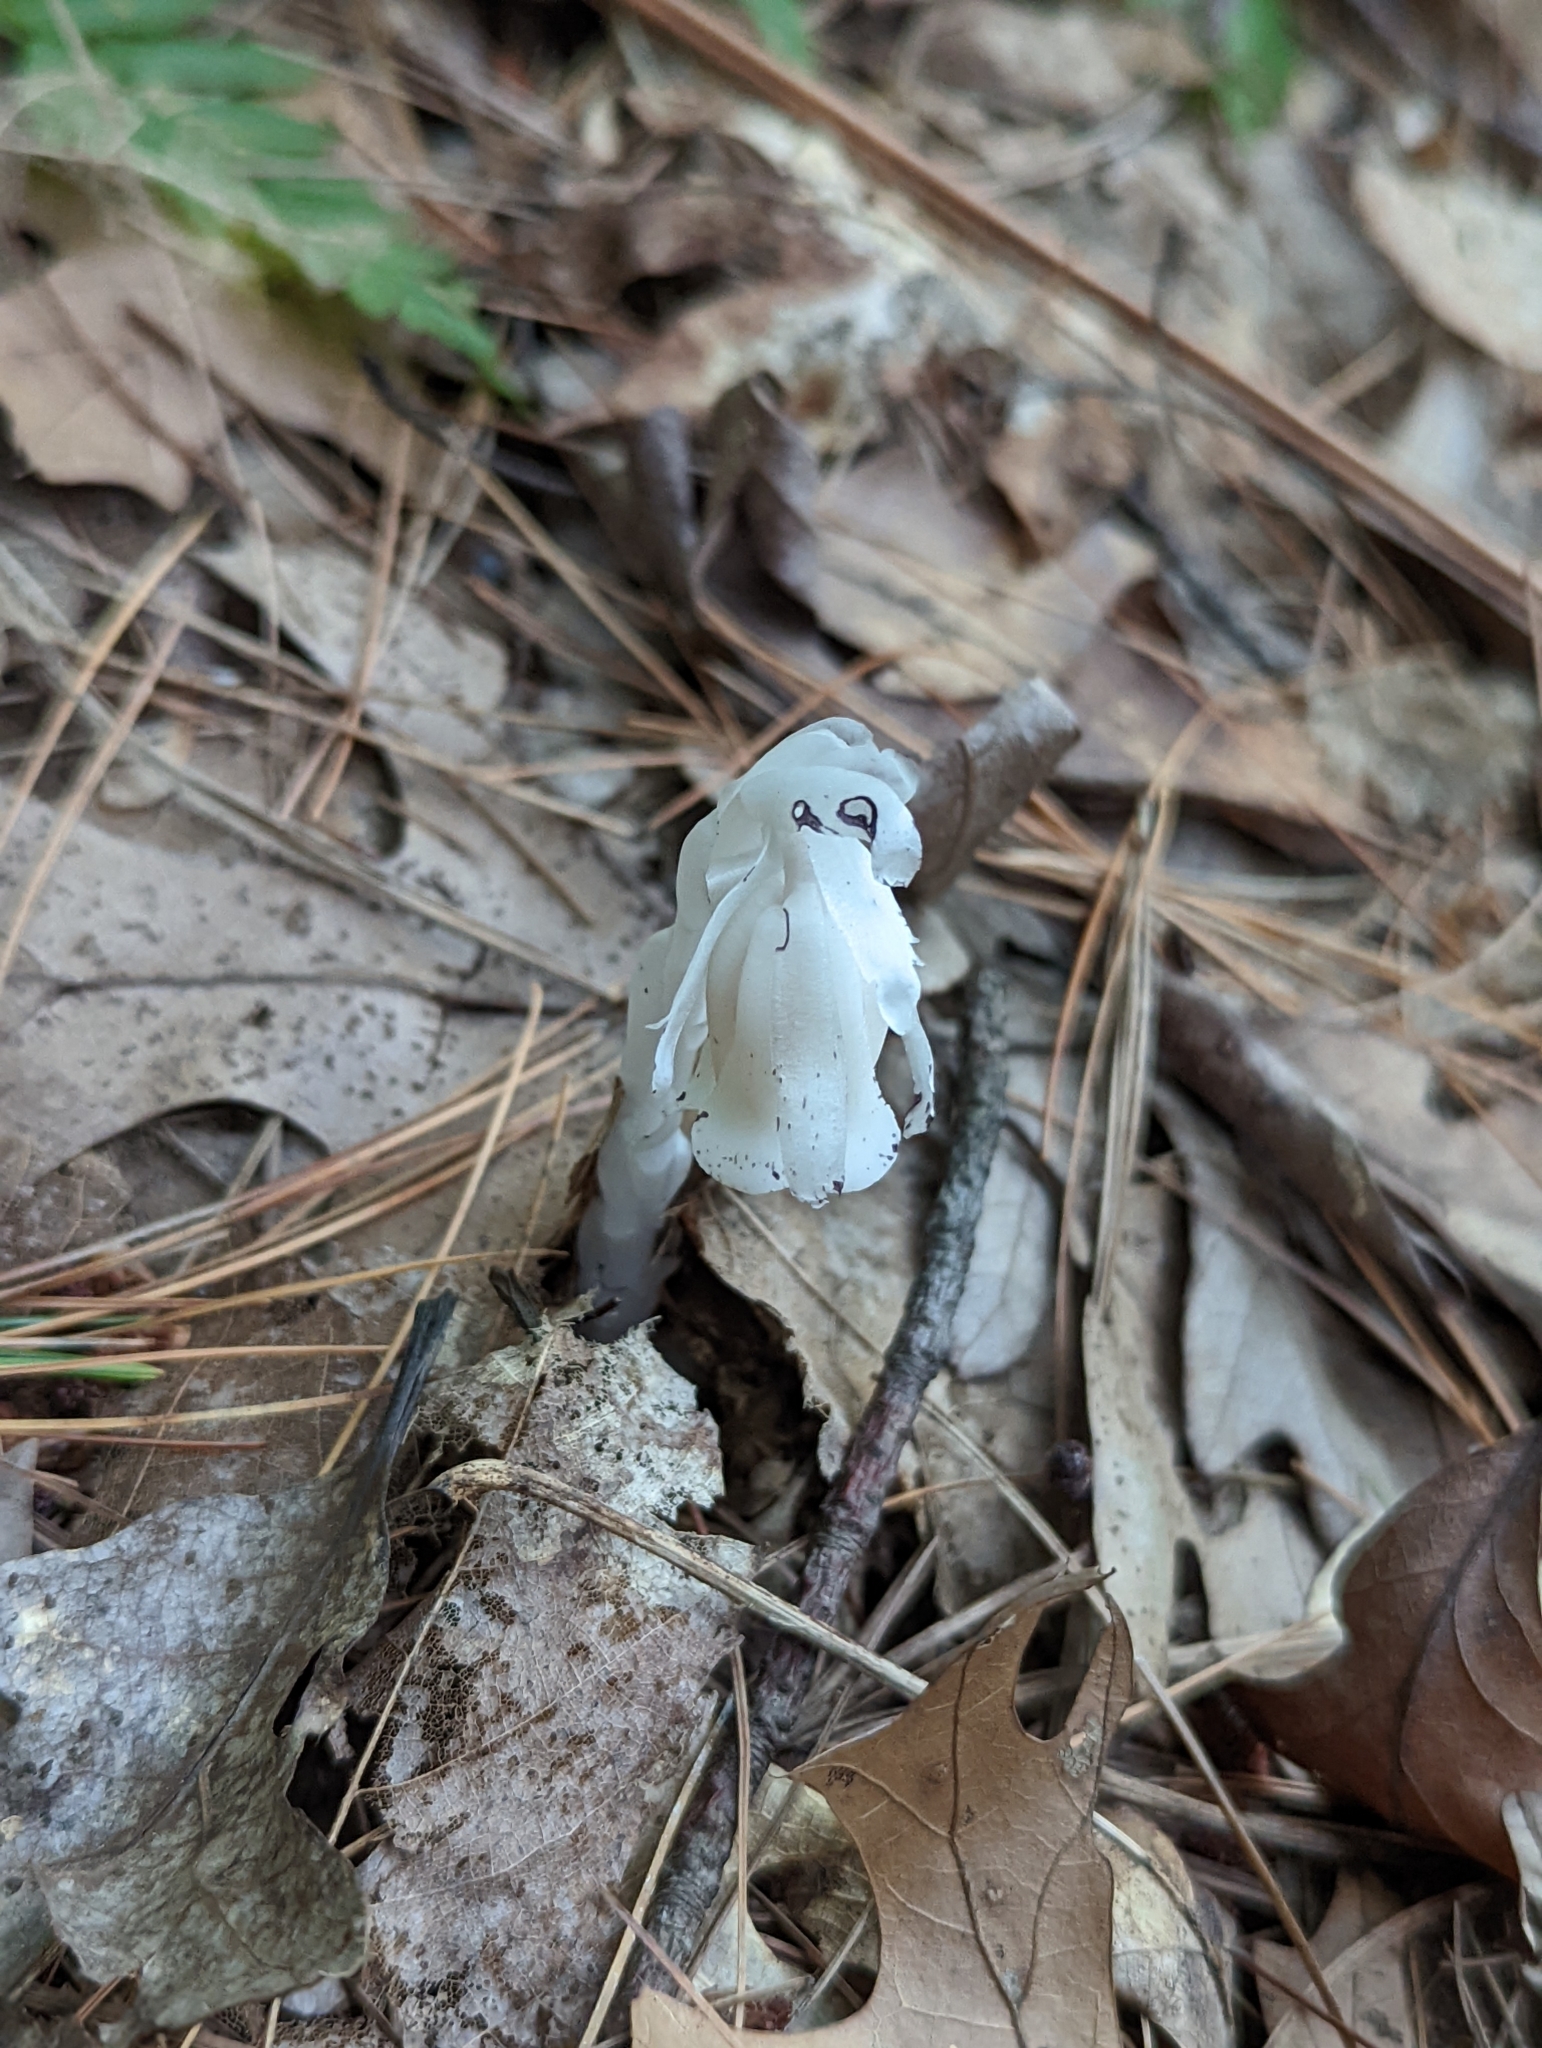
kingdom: Plantae
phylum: Tracheophyta
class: Magnoliopsida
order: Ericales
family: Ericaceae
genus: Monotropa
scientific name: Monotropa uniflora
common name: Convulsion root
